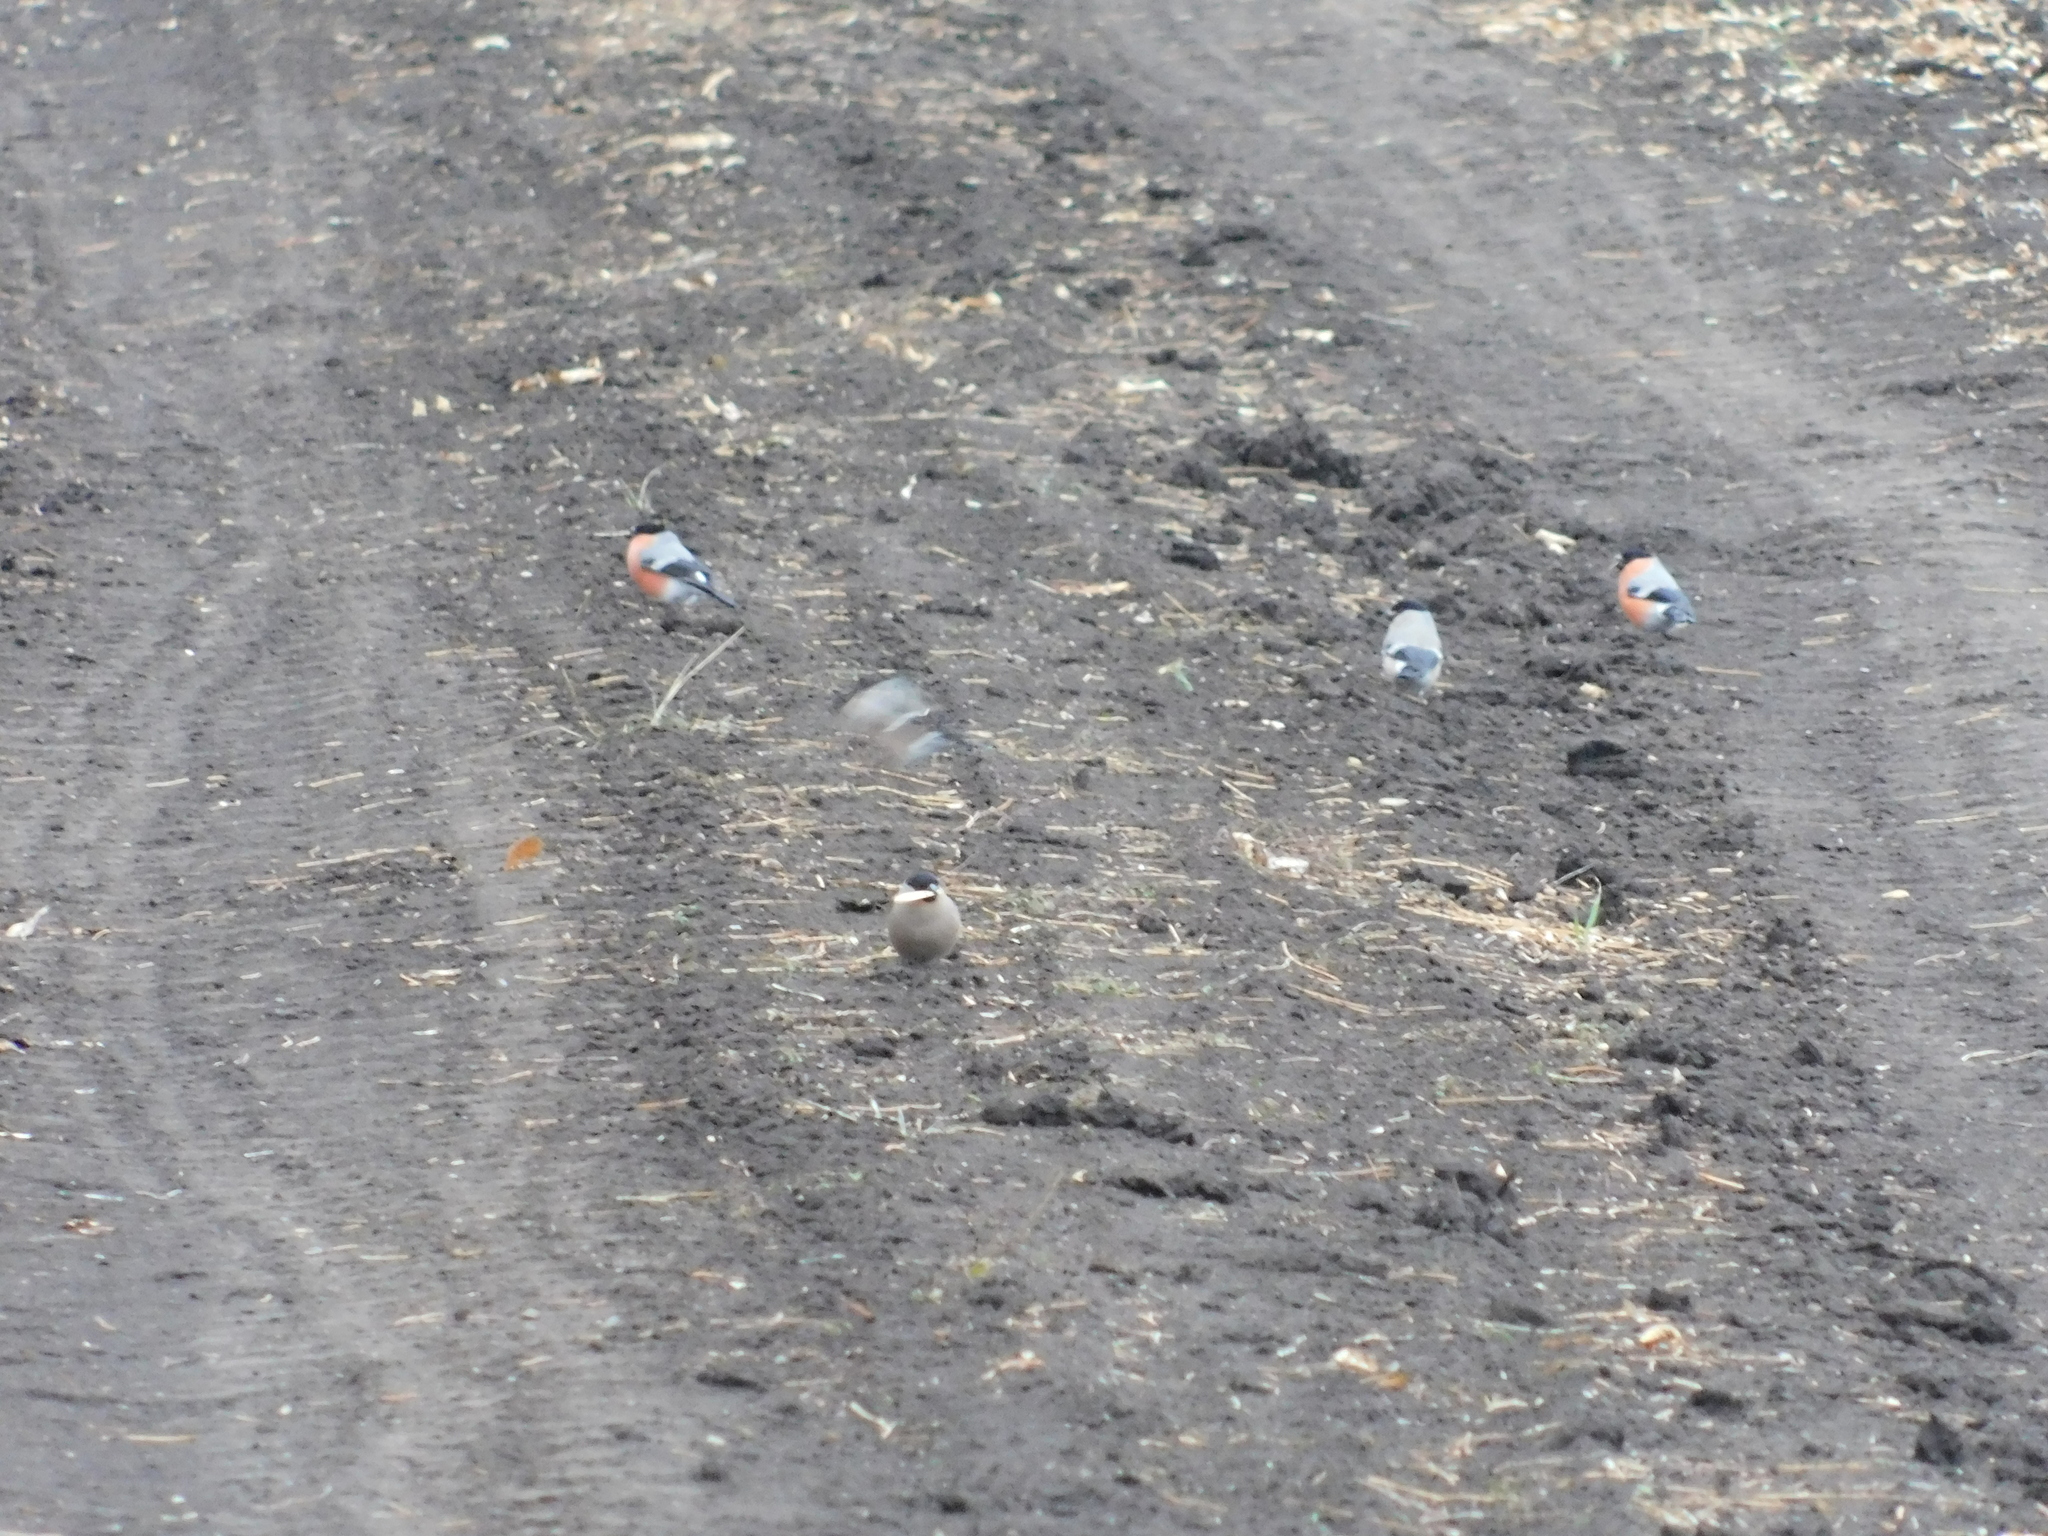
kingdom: Animalia
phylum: Chordata
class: Aves
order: Passeriformes
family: Fringillidae
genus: Pyrrhula
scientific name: Pyrrhula pyrrhula
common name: Eurasian bullfinch
